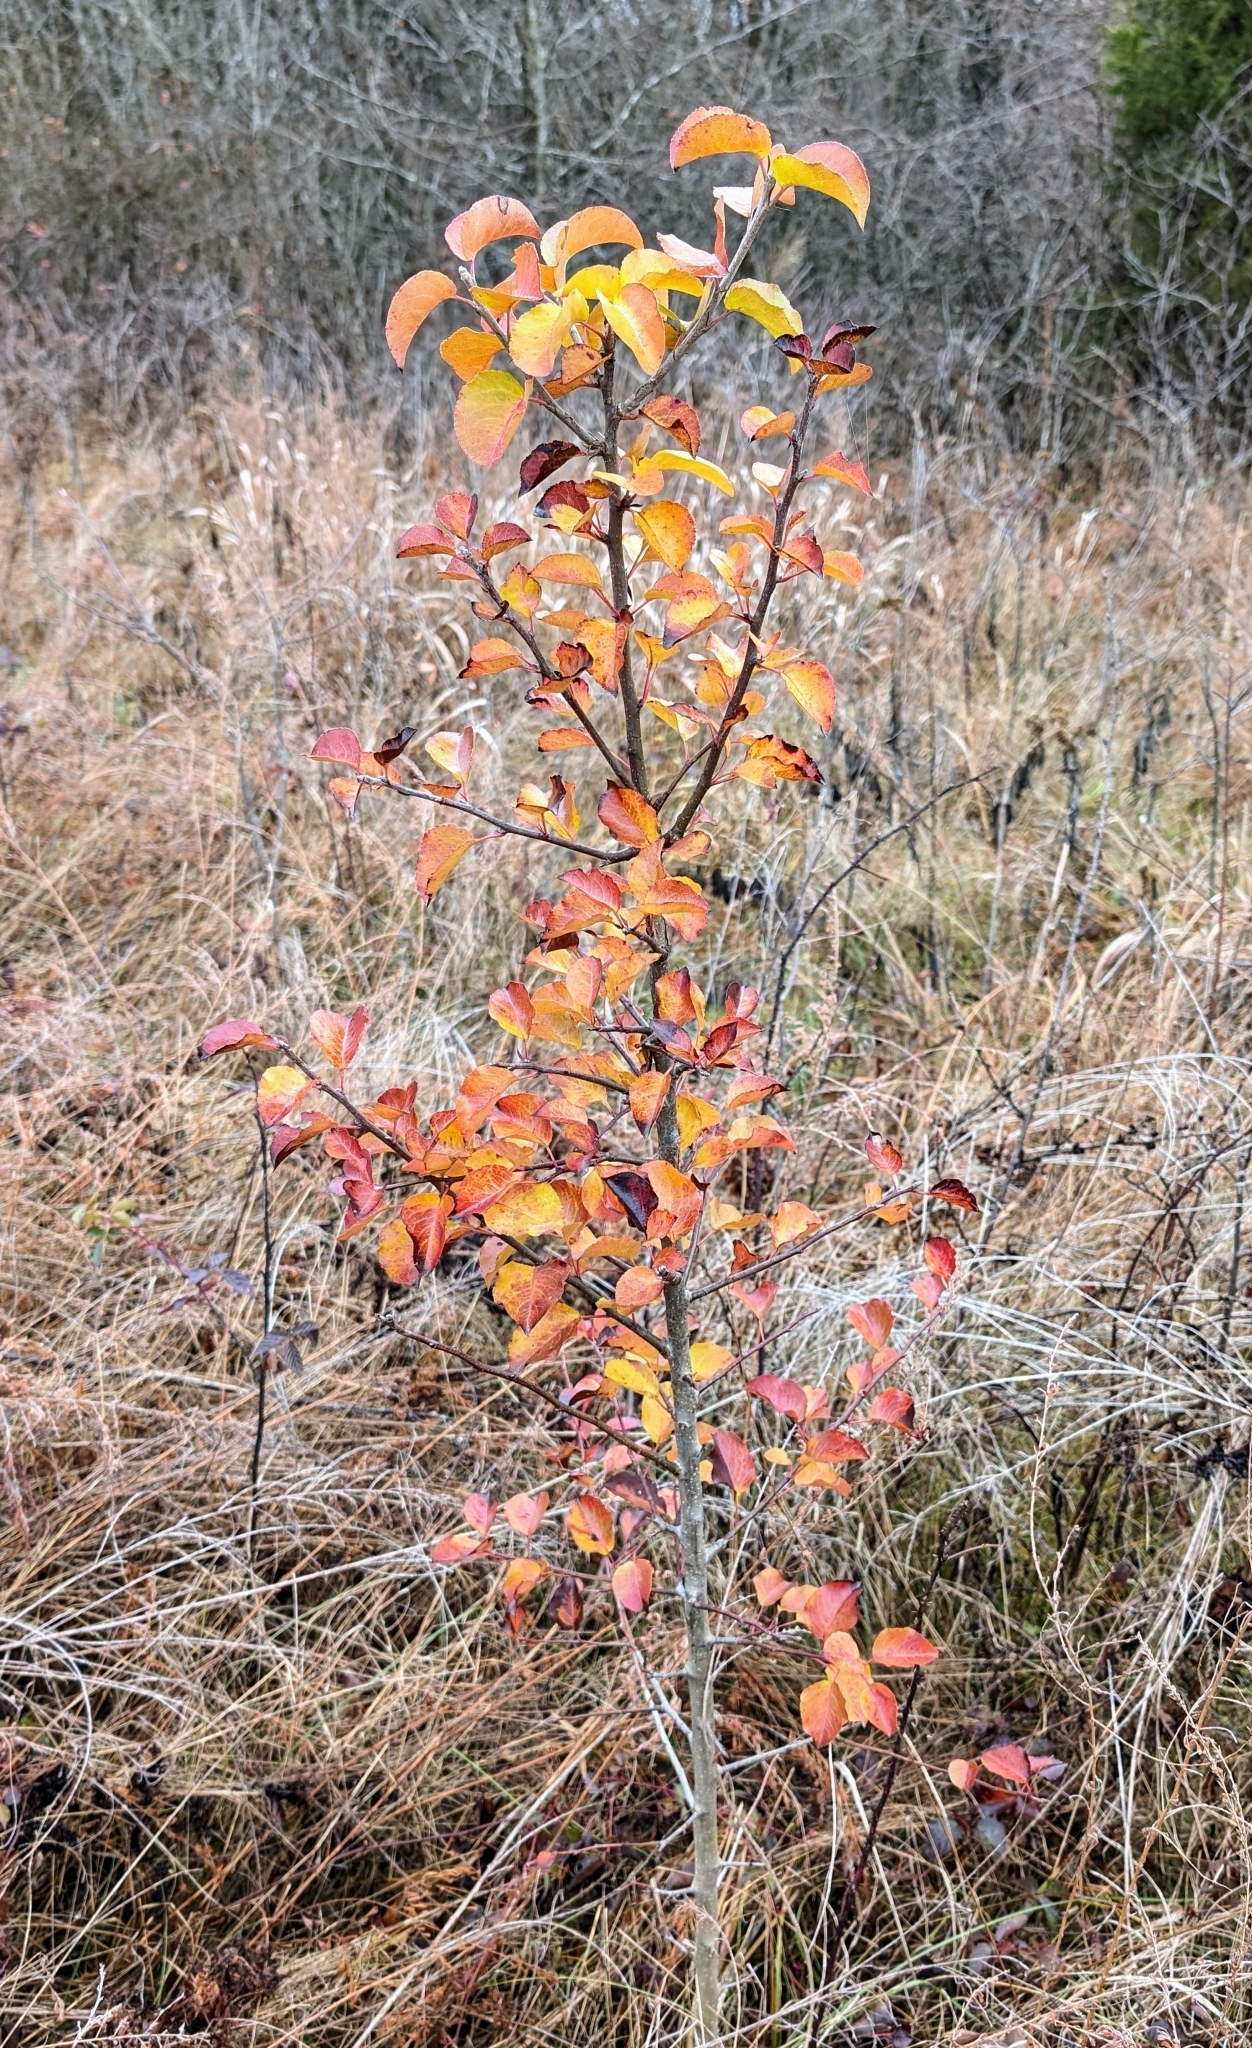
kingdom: Plantae
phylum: Tracheophyta
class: Magnoliopsida
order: Rosales
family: Rosaceae
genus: Pyrus
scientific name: Pyrus calleryana
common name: Callery pear
